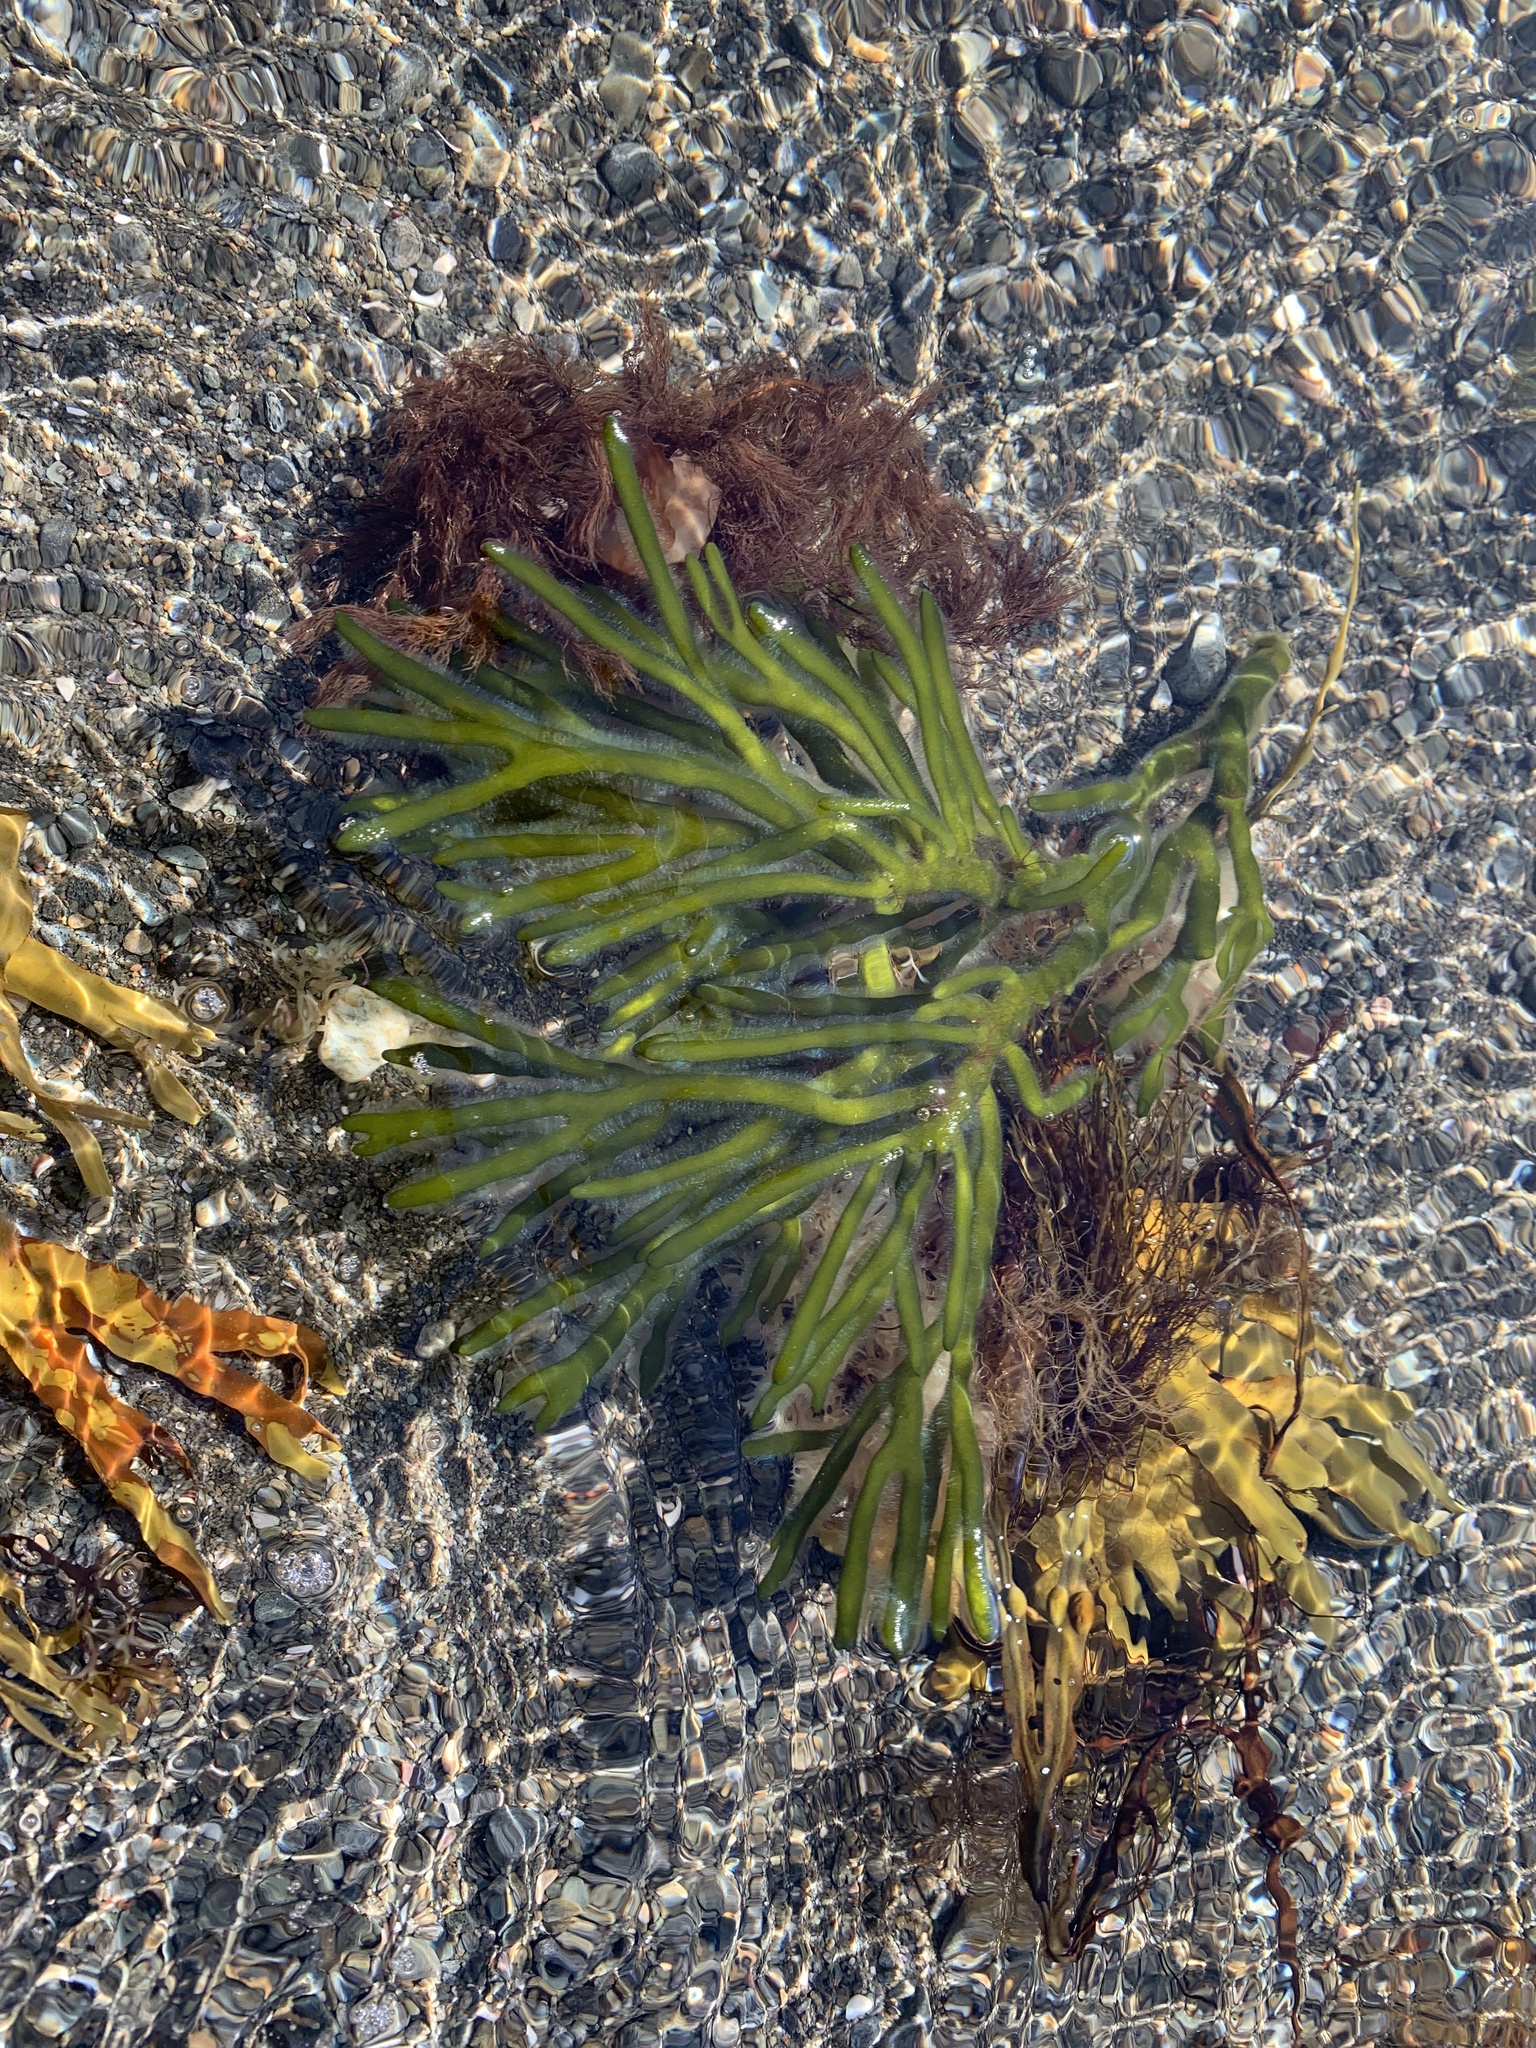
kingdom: Plantae
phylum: Chlorophyta
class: Ulvophyceae
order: Bryopsidales
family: Codiaceae
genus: Codium
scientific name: Codium fragile
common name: Dead man's fingers
